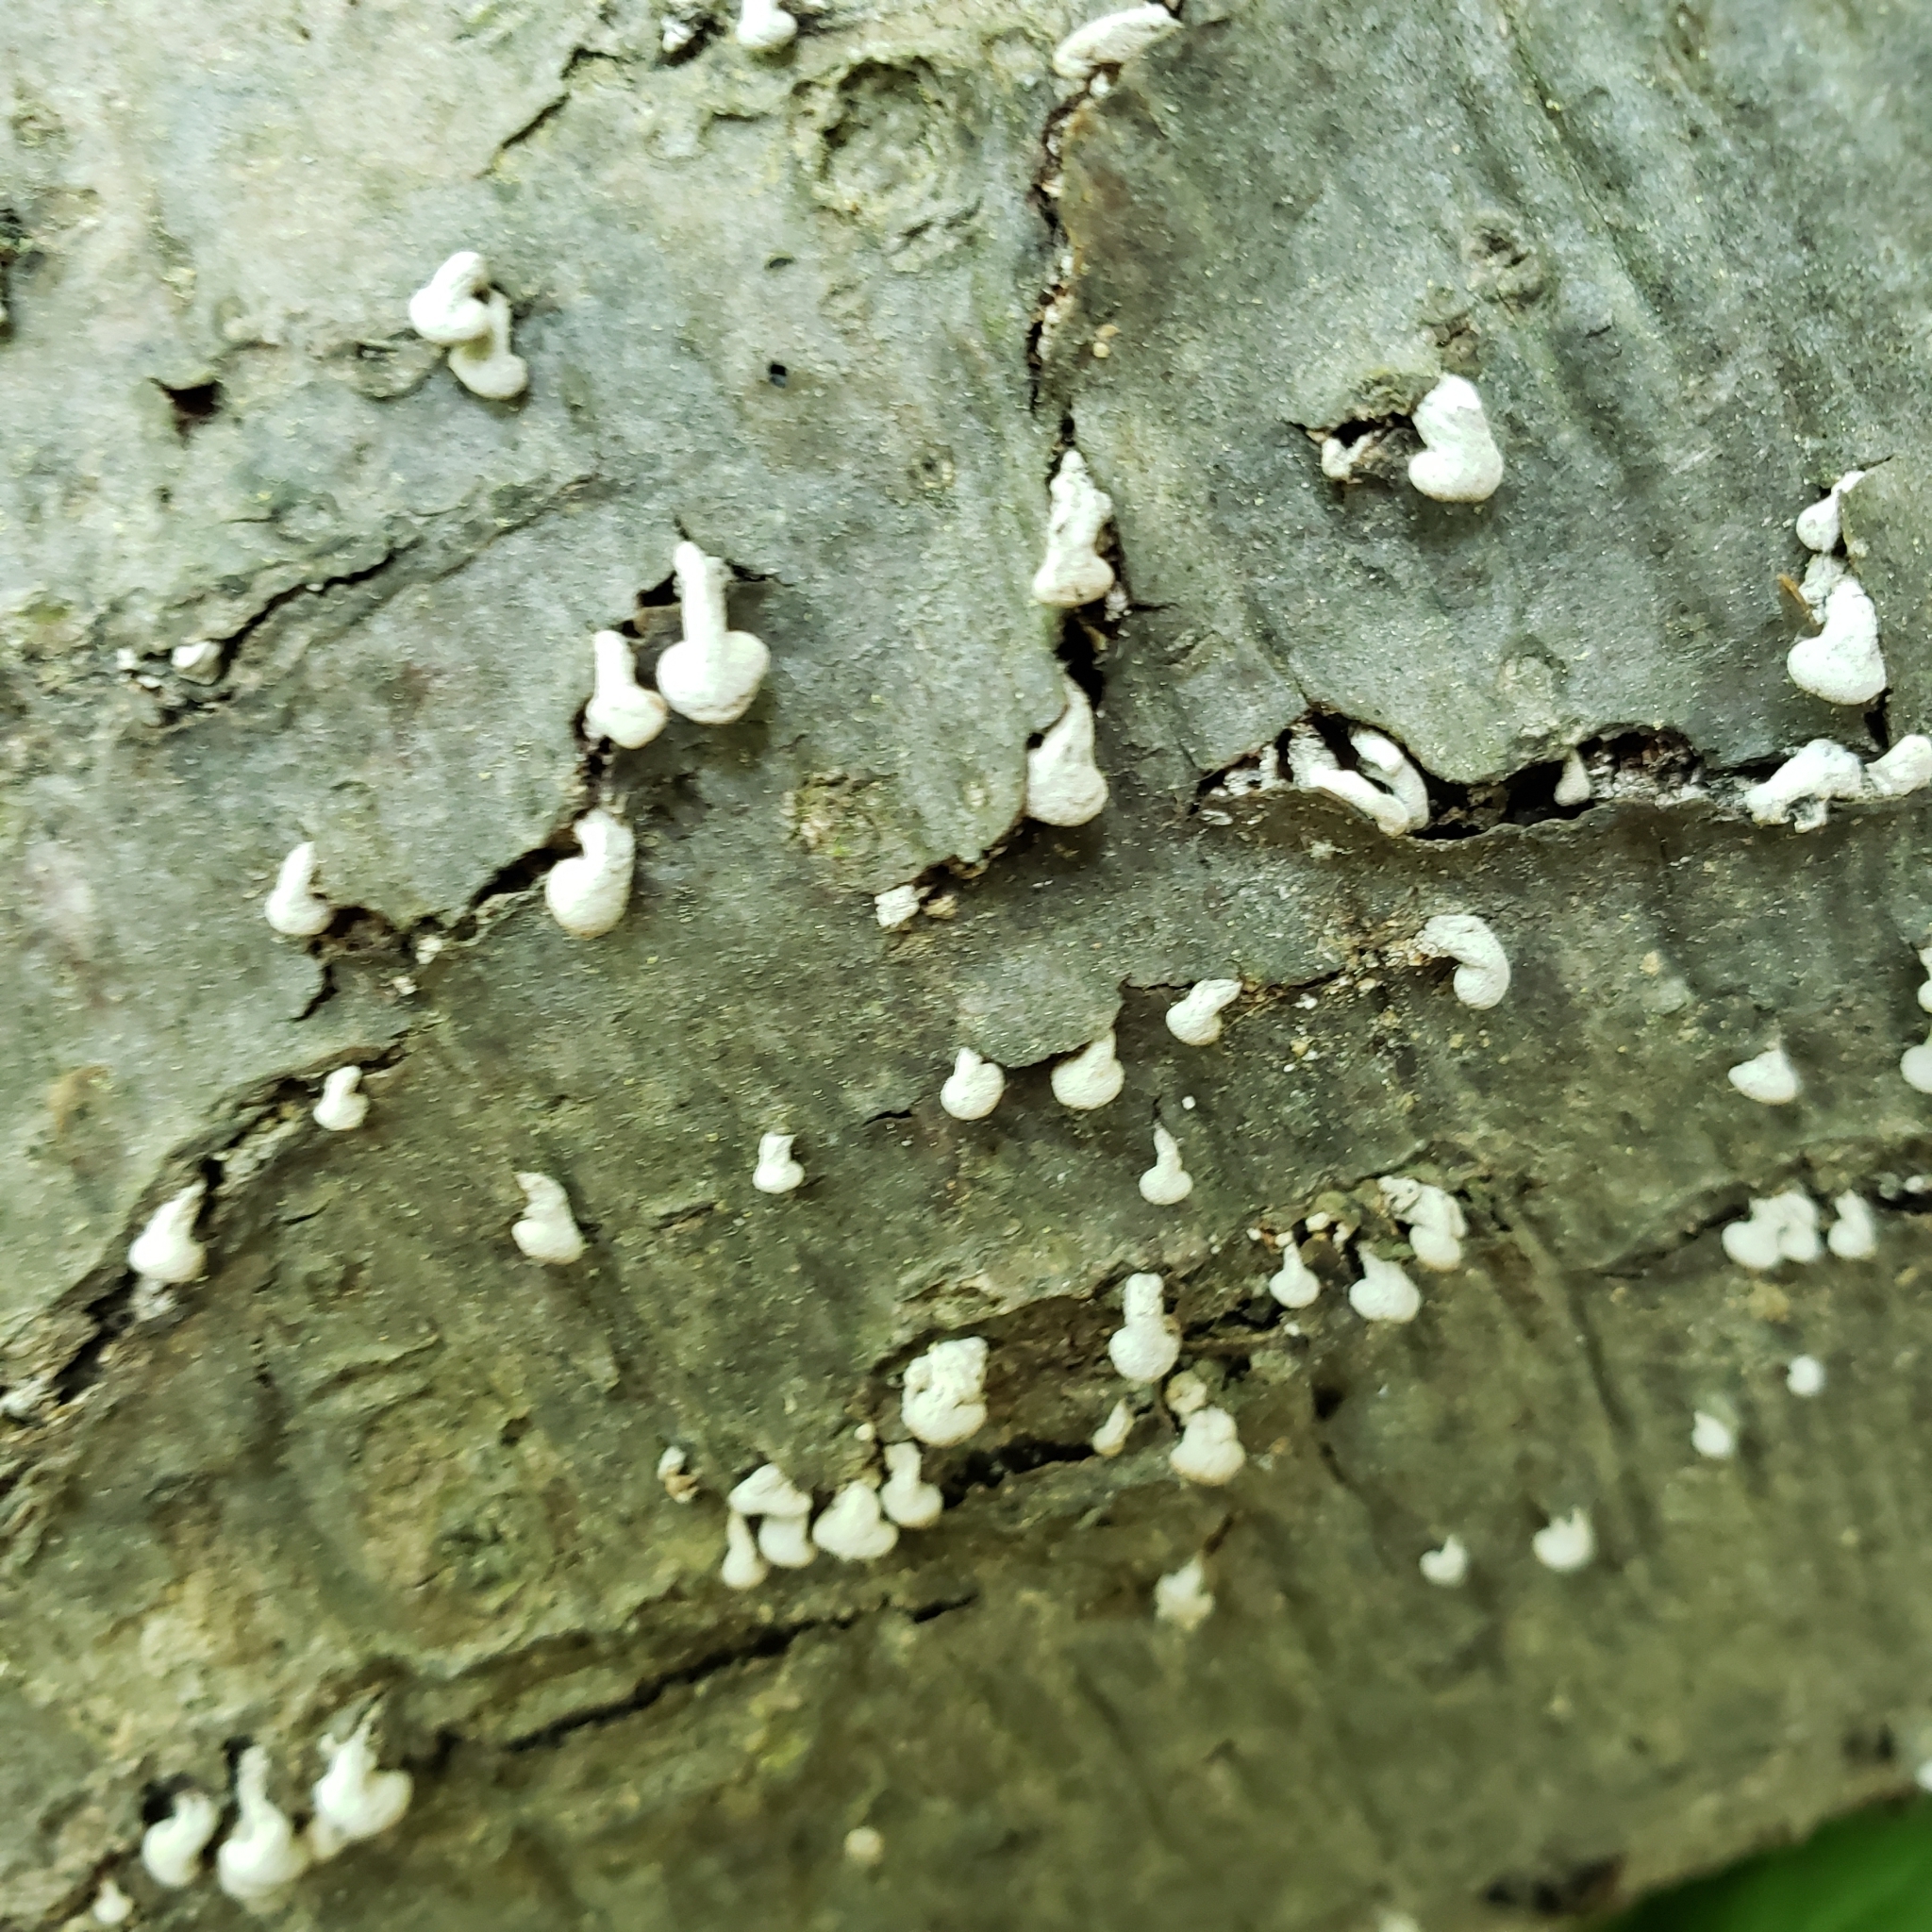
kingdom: Fungi
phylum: Basidiomycota
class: Agaricomycetes
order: Agaricales
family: Schizophyllaceae
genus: Porodisculus
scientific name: Porodisculus pendulus
